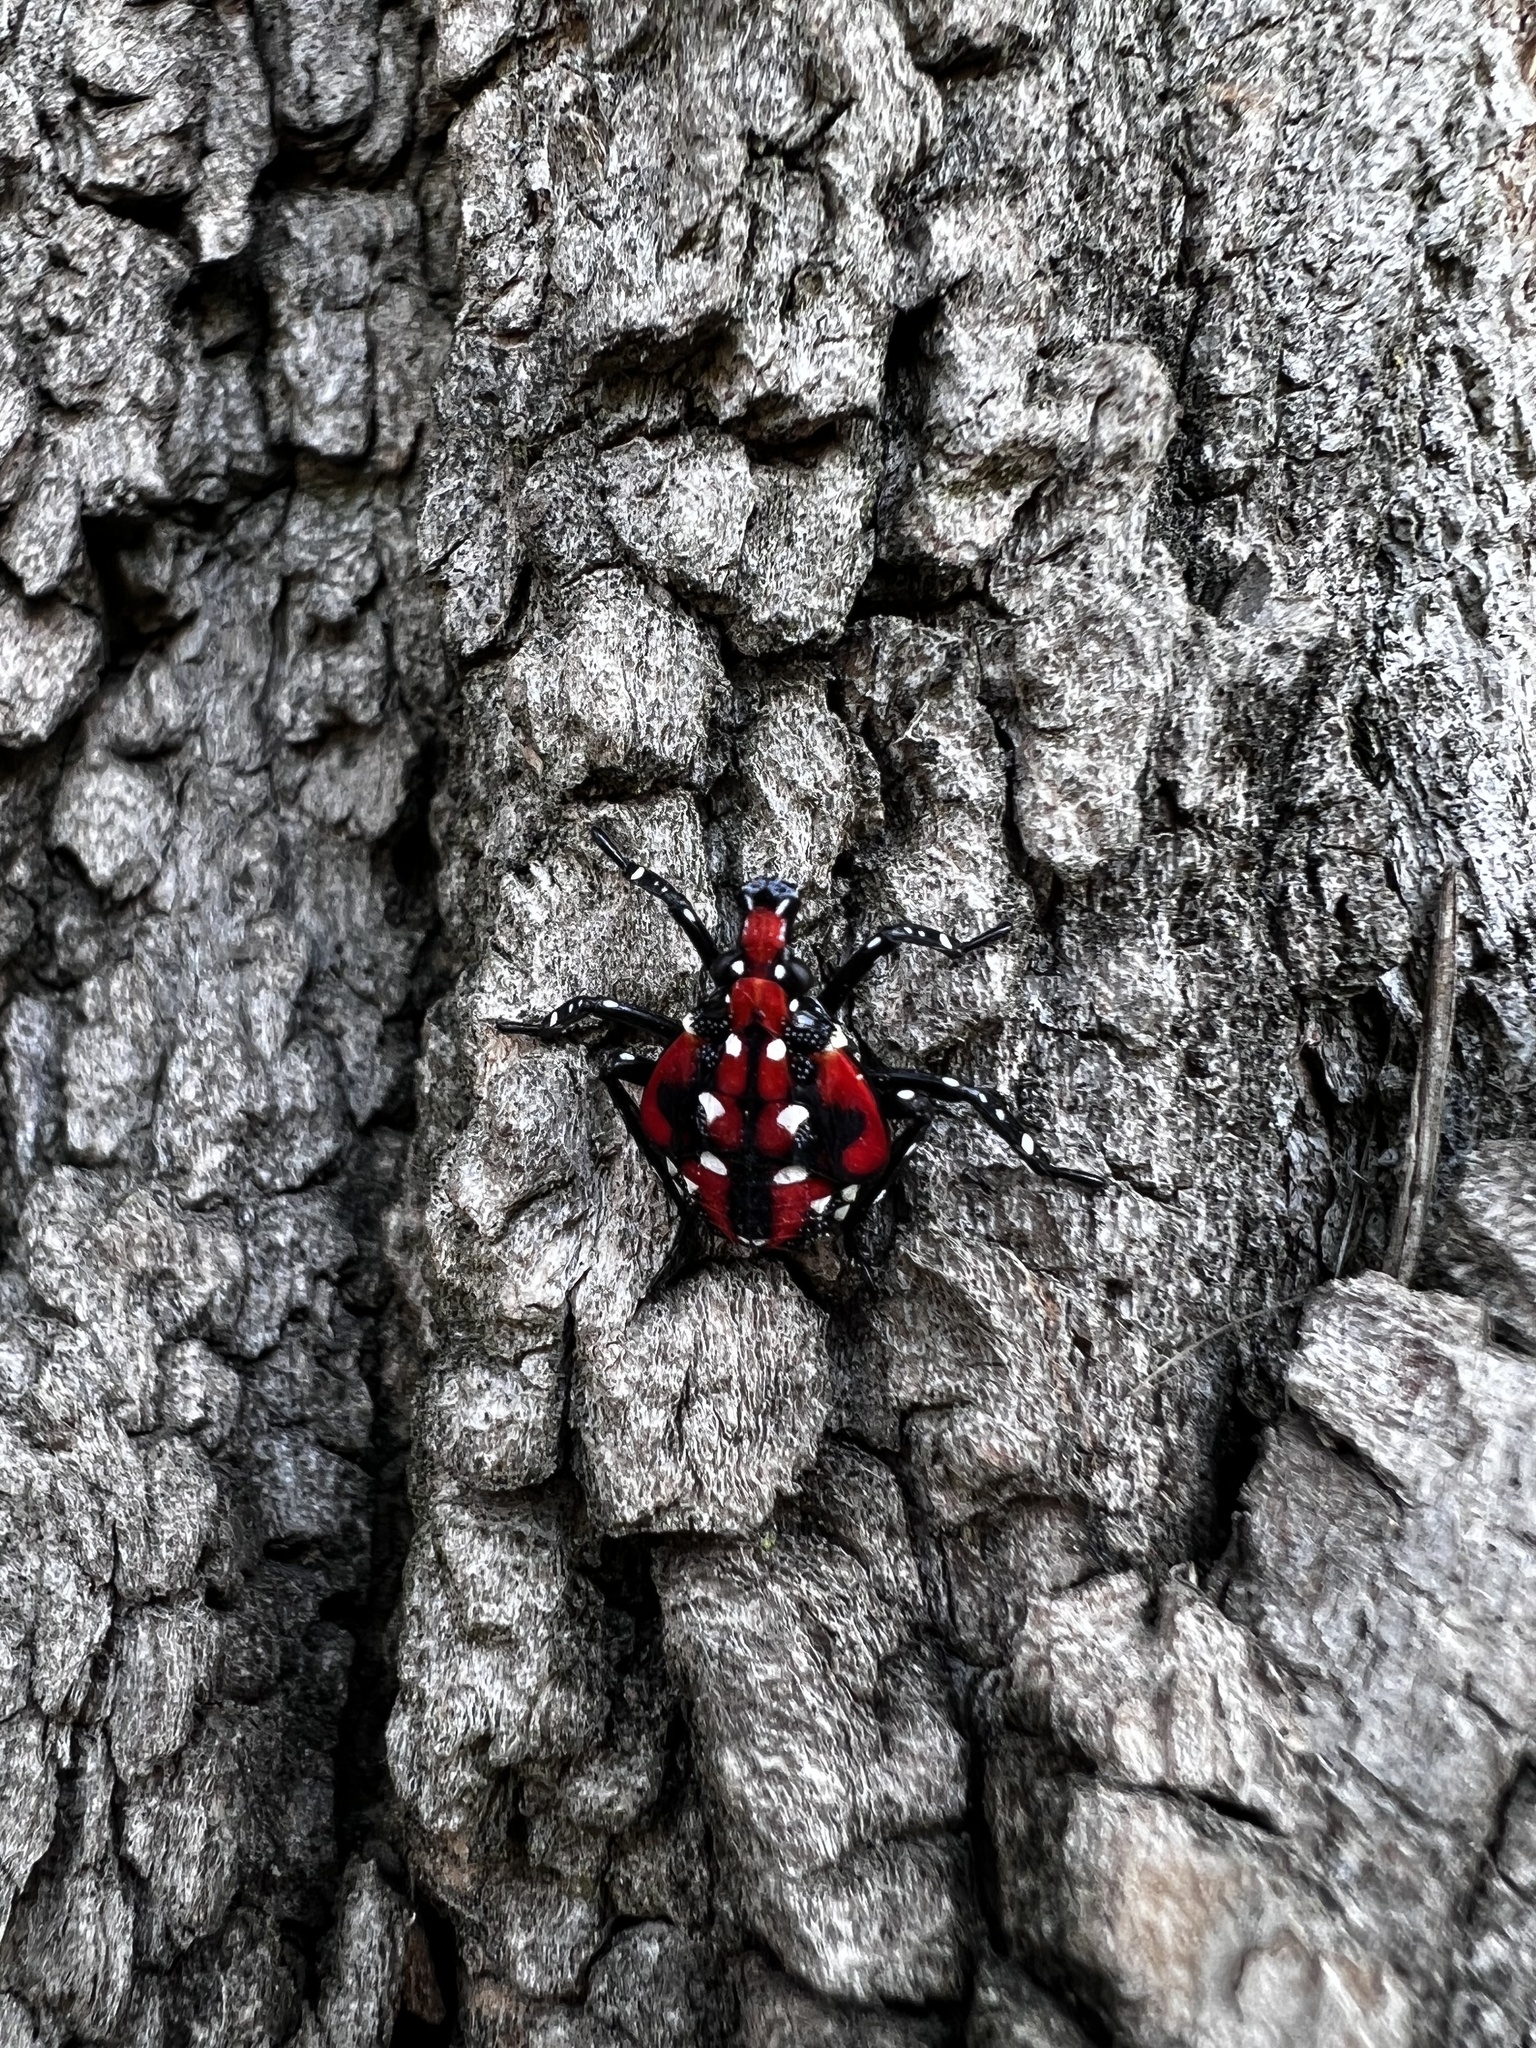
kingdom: Animalia
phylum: Arthropoda
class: Insecta
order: Hemiptera
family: Fulgoridae
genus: Lycorma
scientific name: Lycorma delicatula
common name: Spotted lanternfly
